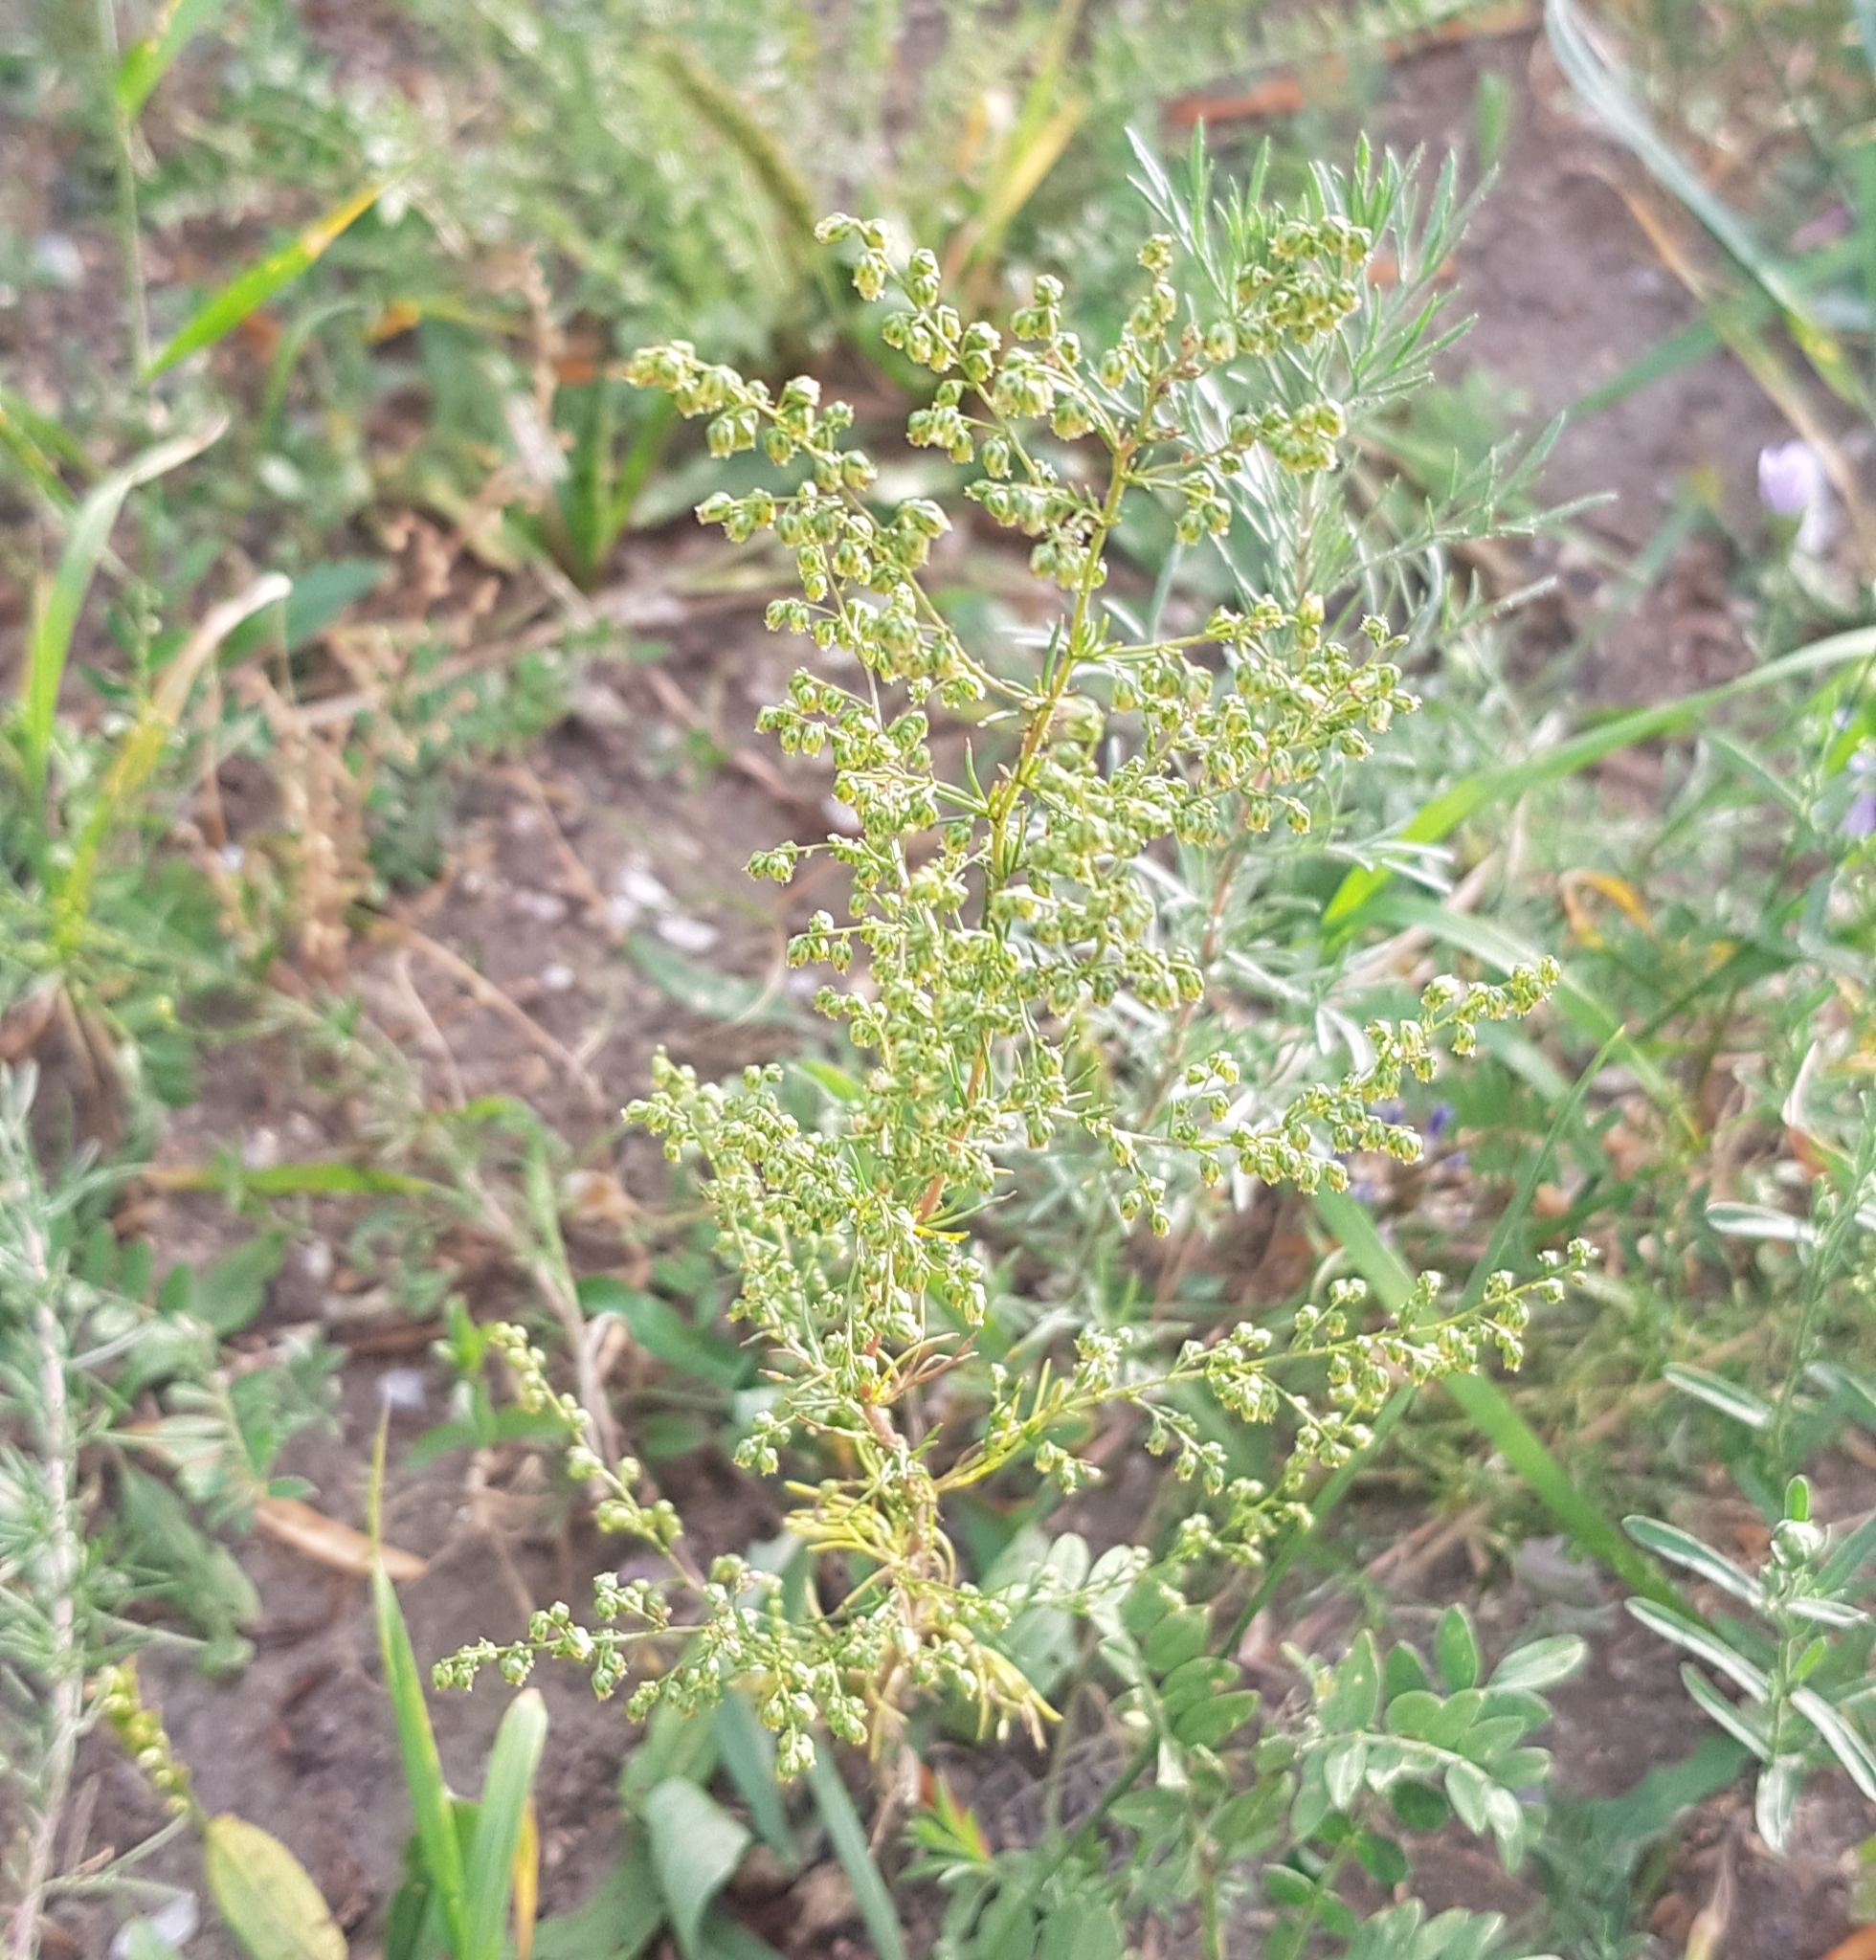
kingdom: Plantae
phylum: Tracheophyta
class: Magnoliopsida
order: Asterales
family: Asteraceae
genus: Artemisia
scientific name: Artemisia dracunculus
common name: Tarragon
